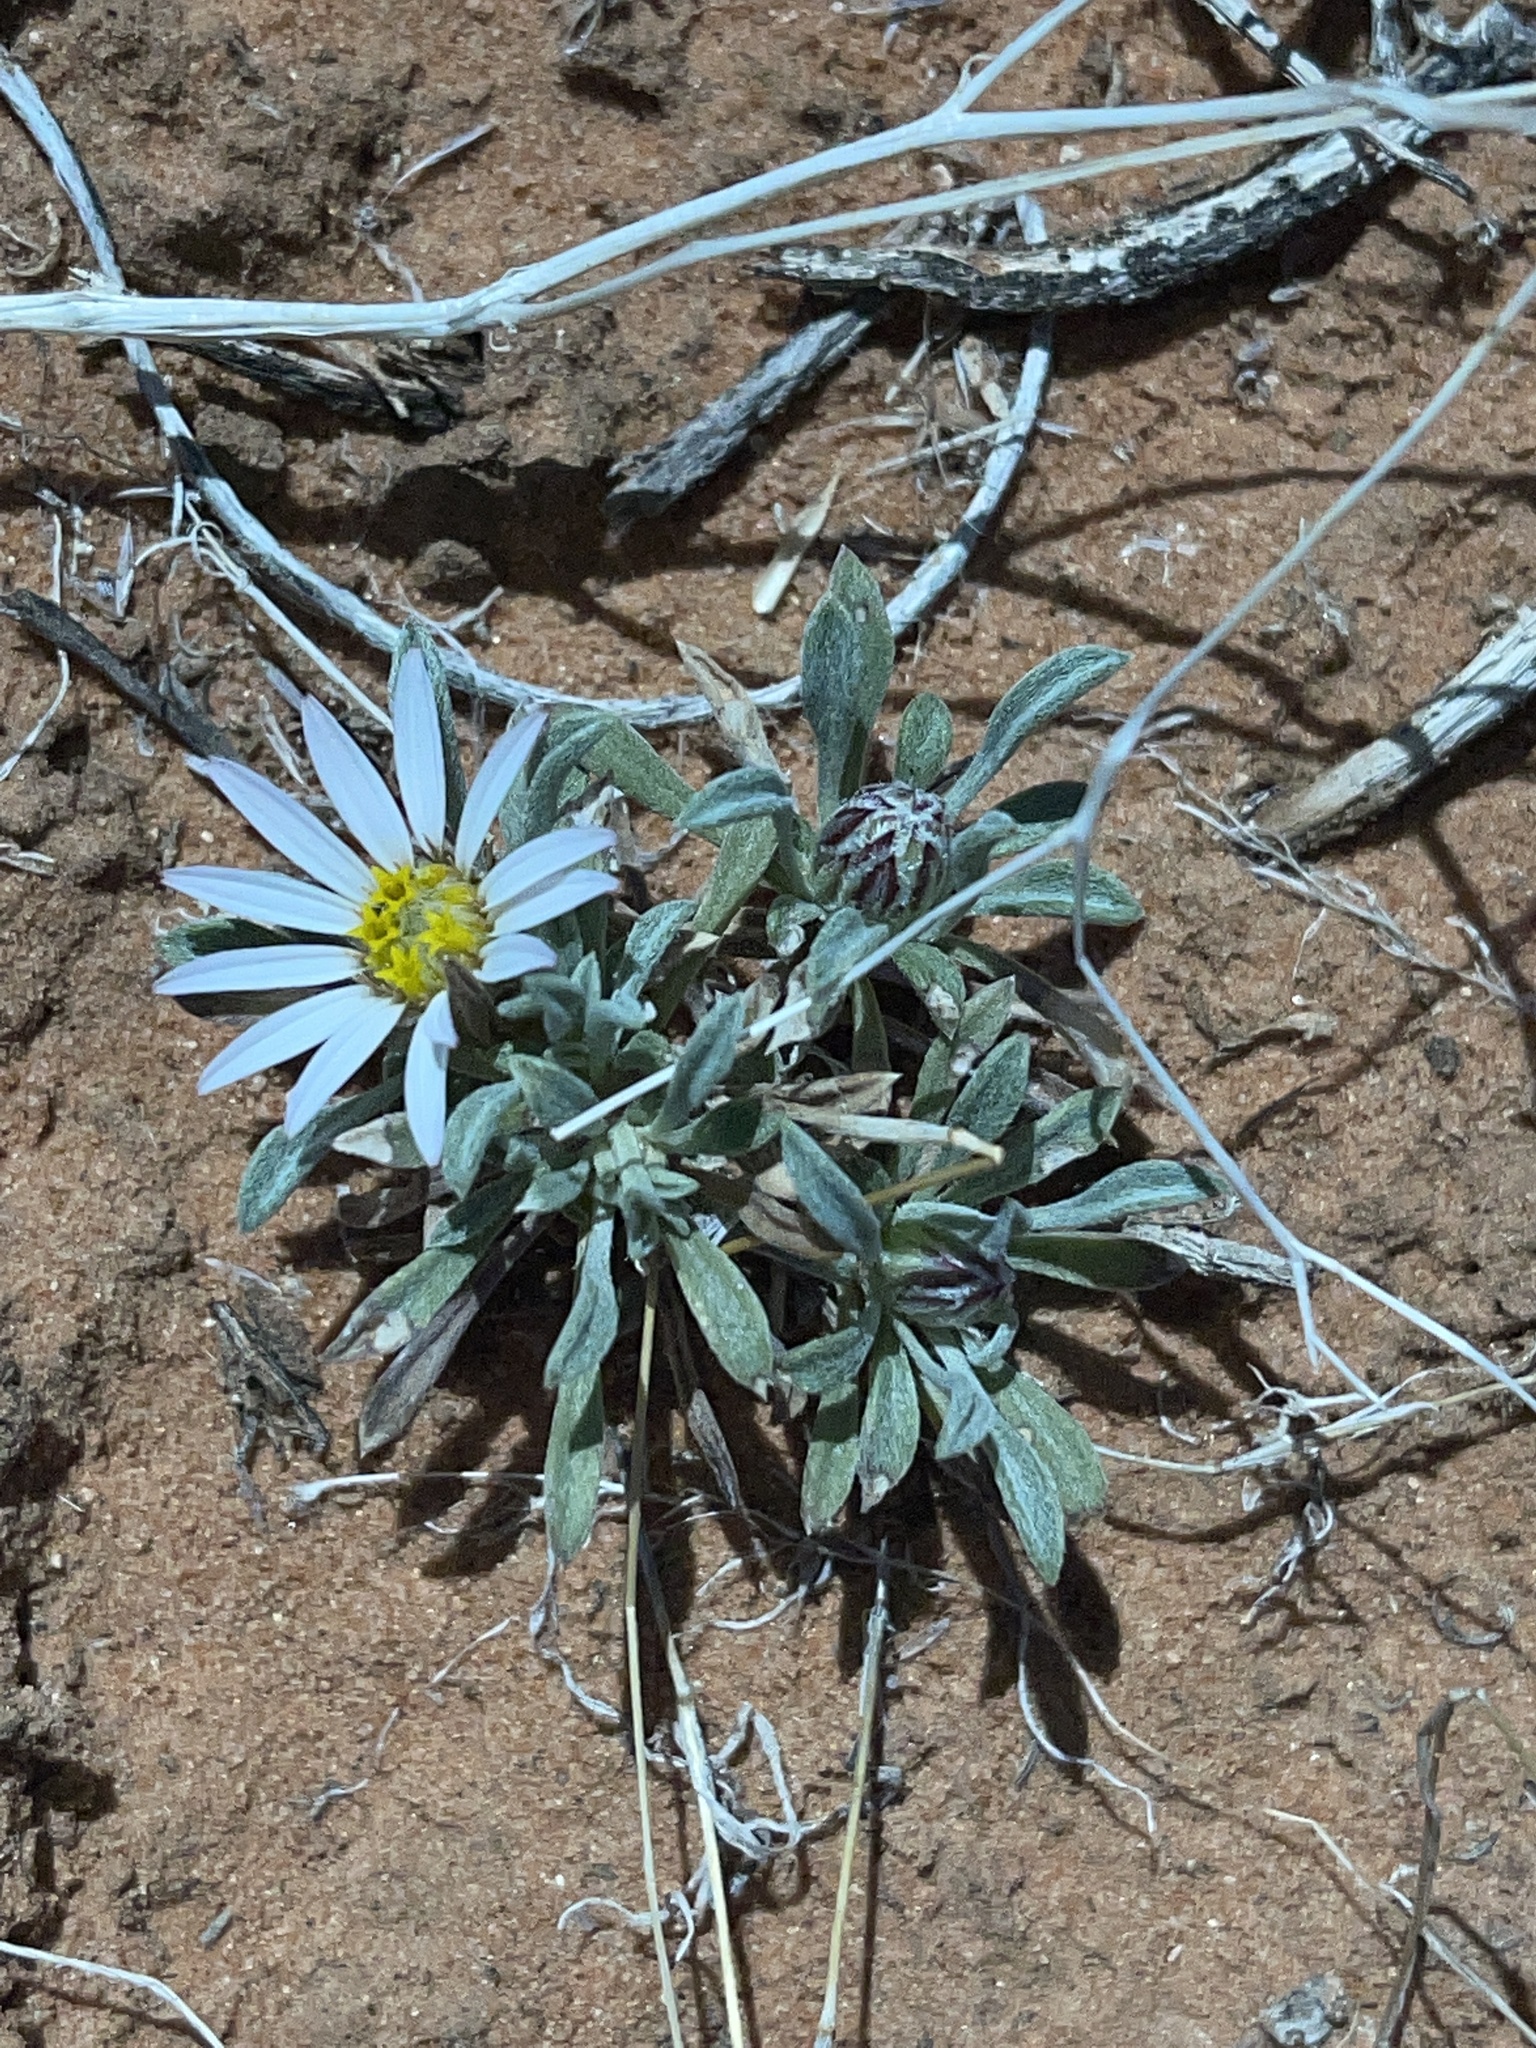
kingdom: Plantae
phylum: Tracheophyta
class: Magnoliopsida
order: Asterales
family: Asteraceae
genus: Townsendia
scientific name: Townsendia incana
